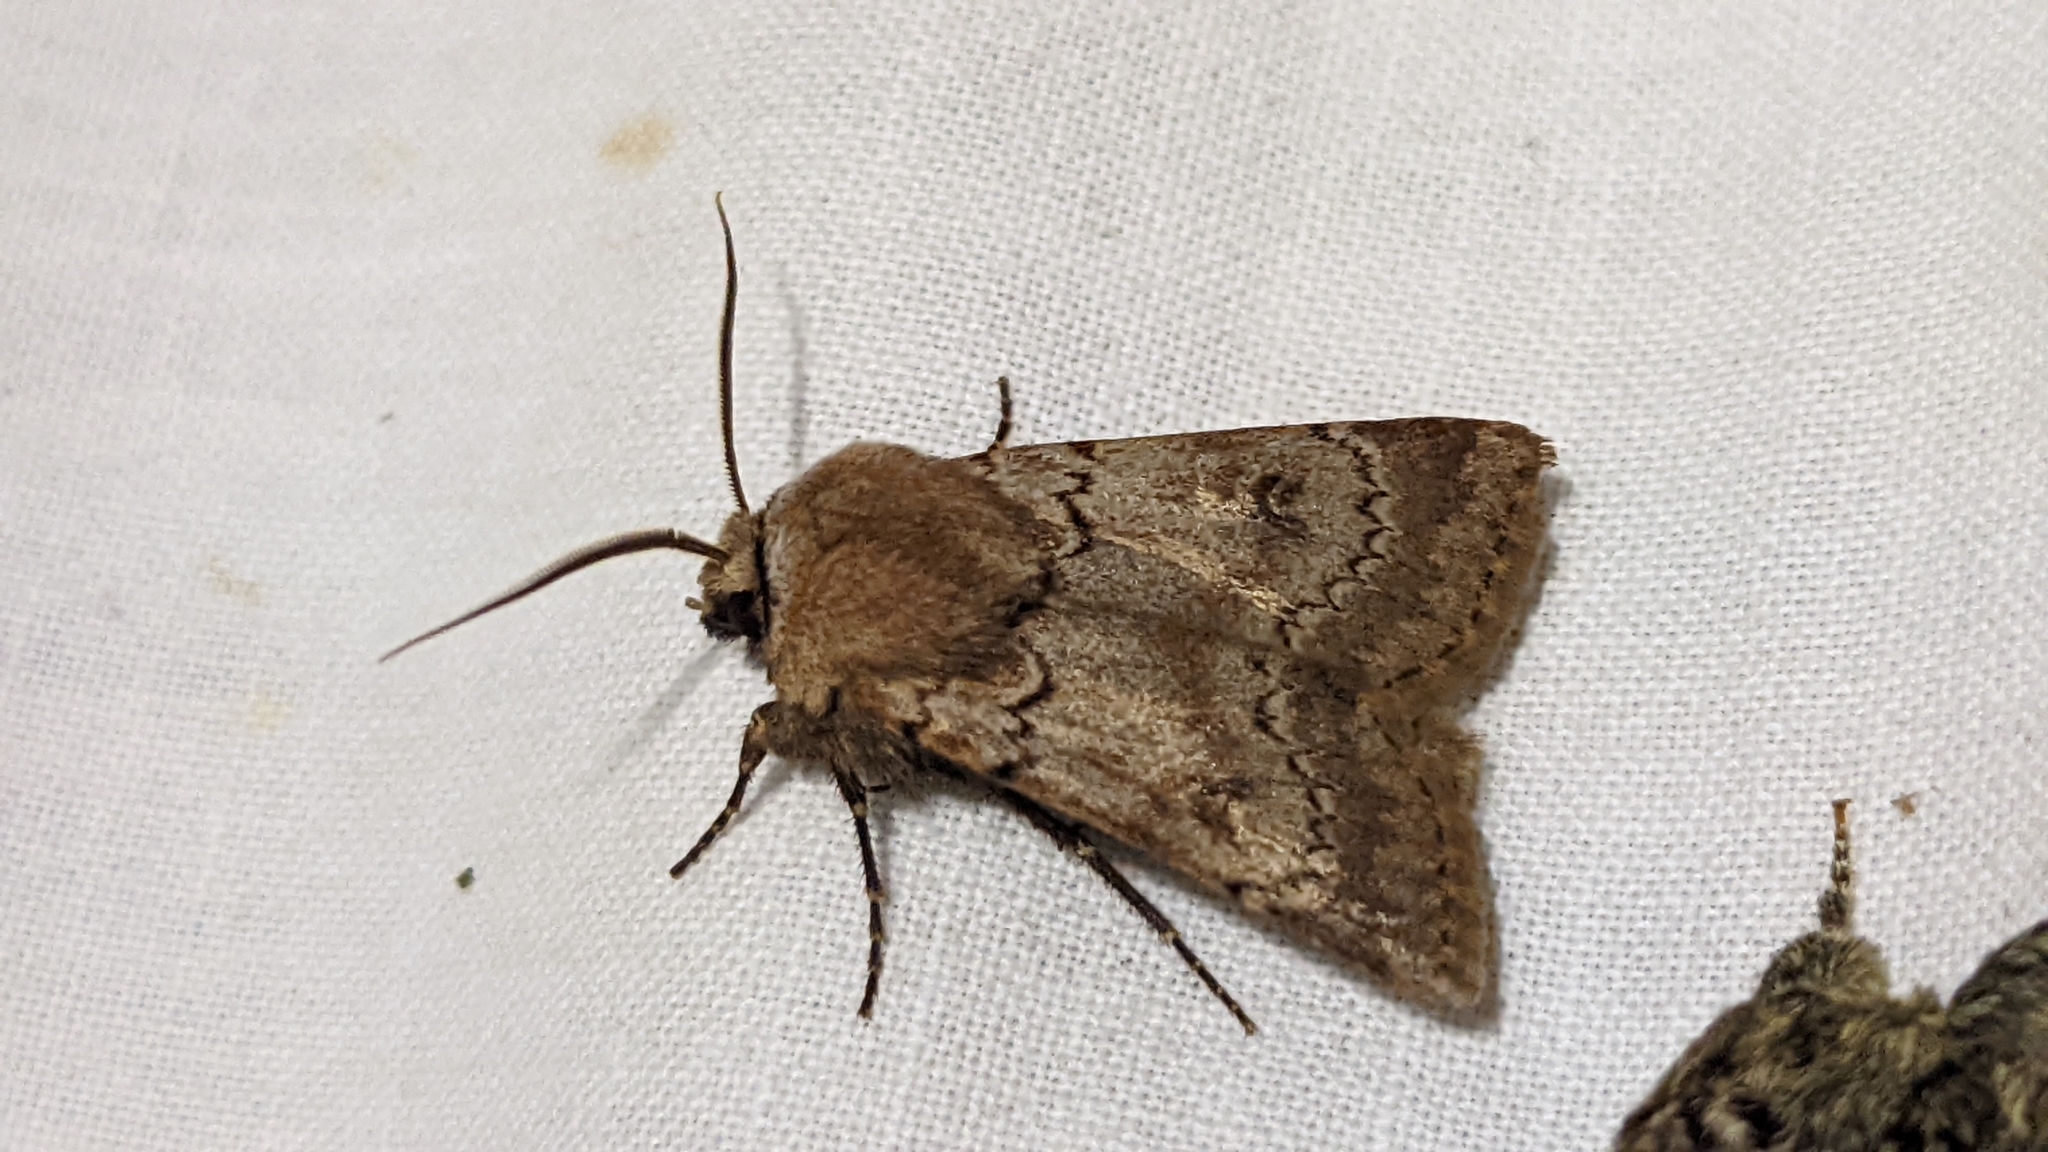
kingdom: Animalia
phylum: Arthropoda
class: Insecta
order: Lepidoptera
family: Noctuidae
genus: Agrotis
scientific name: Agrotis cinerea
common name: Light feathered rustic
